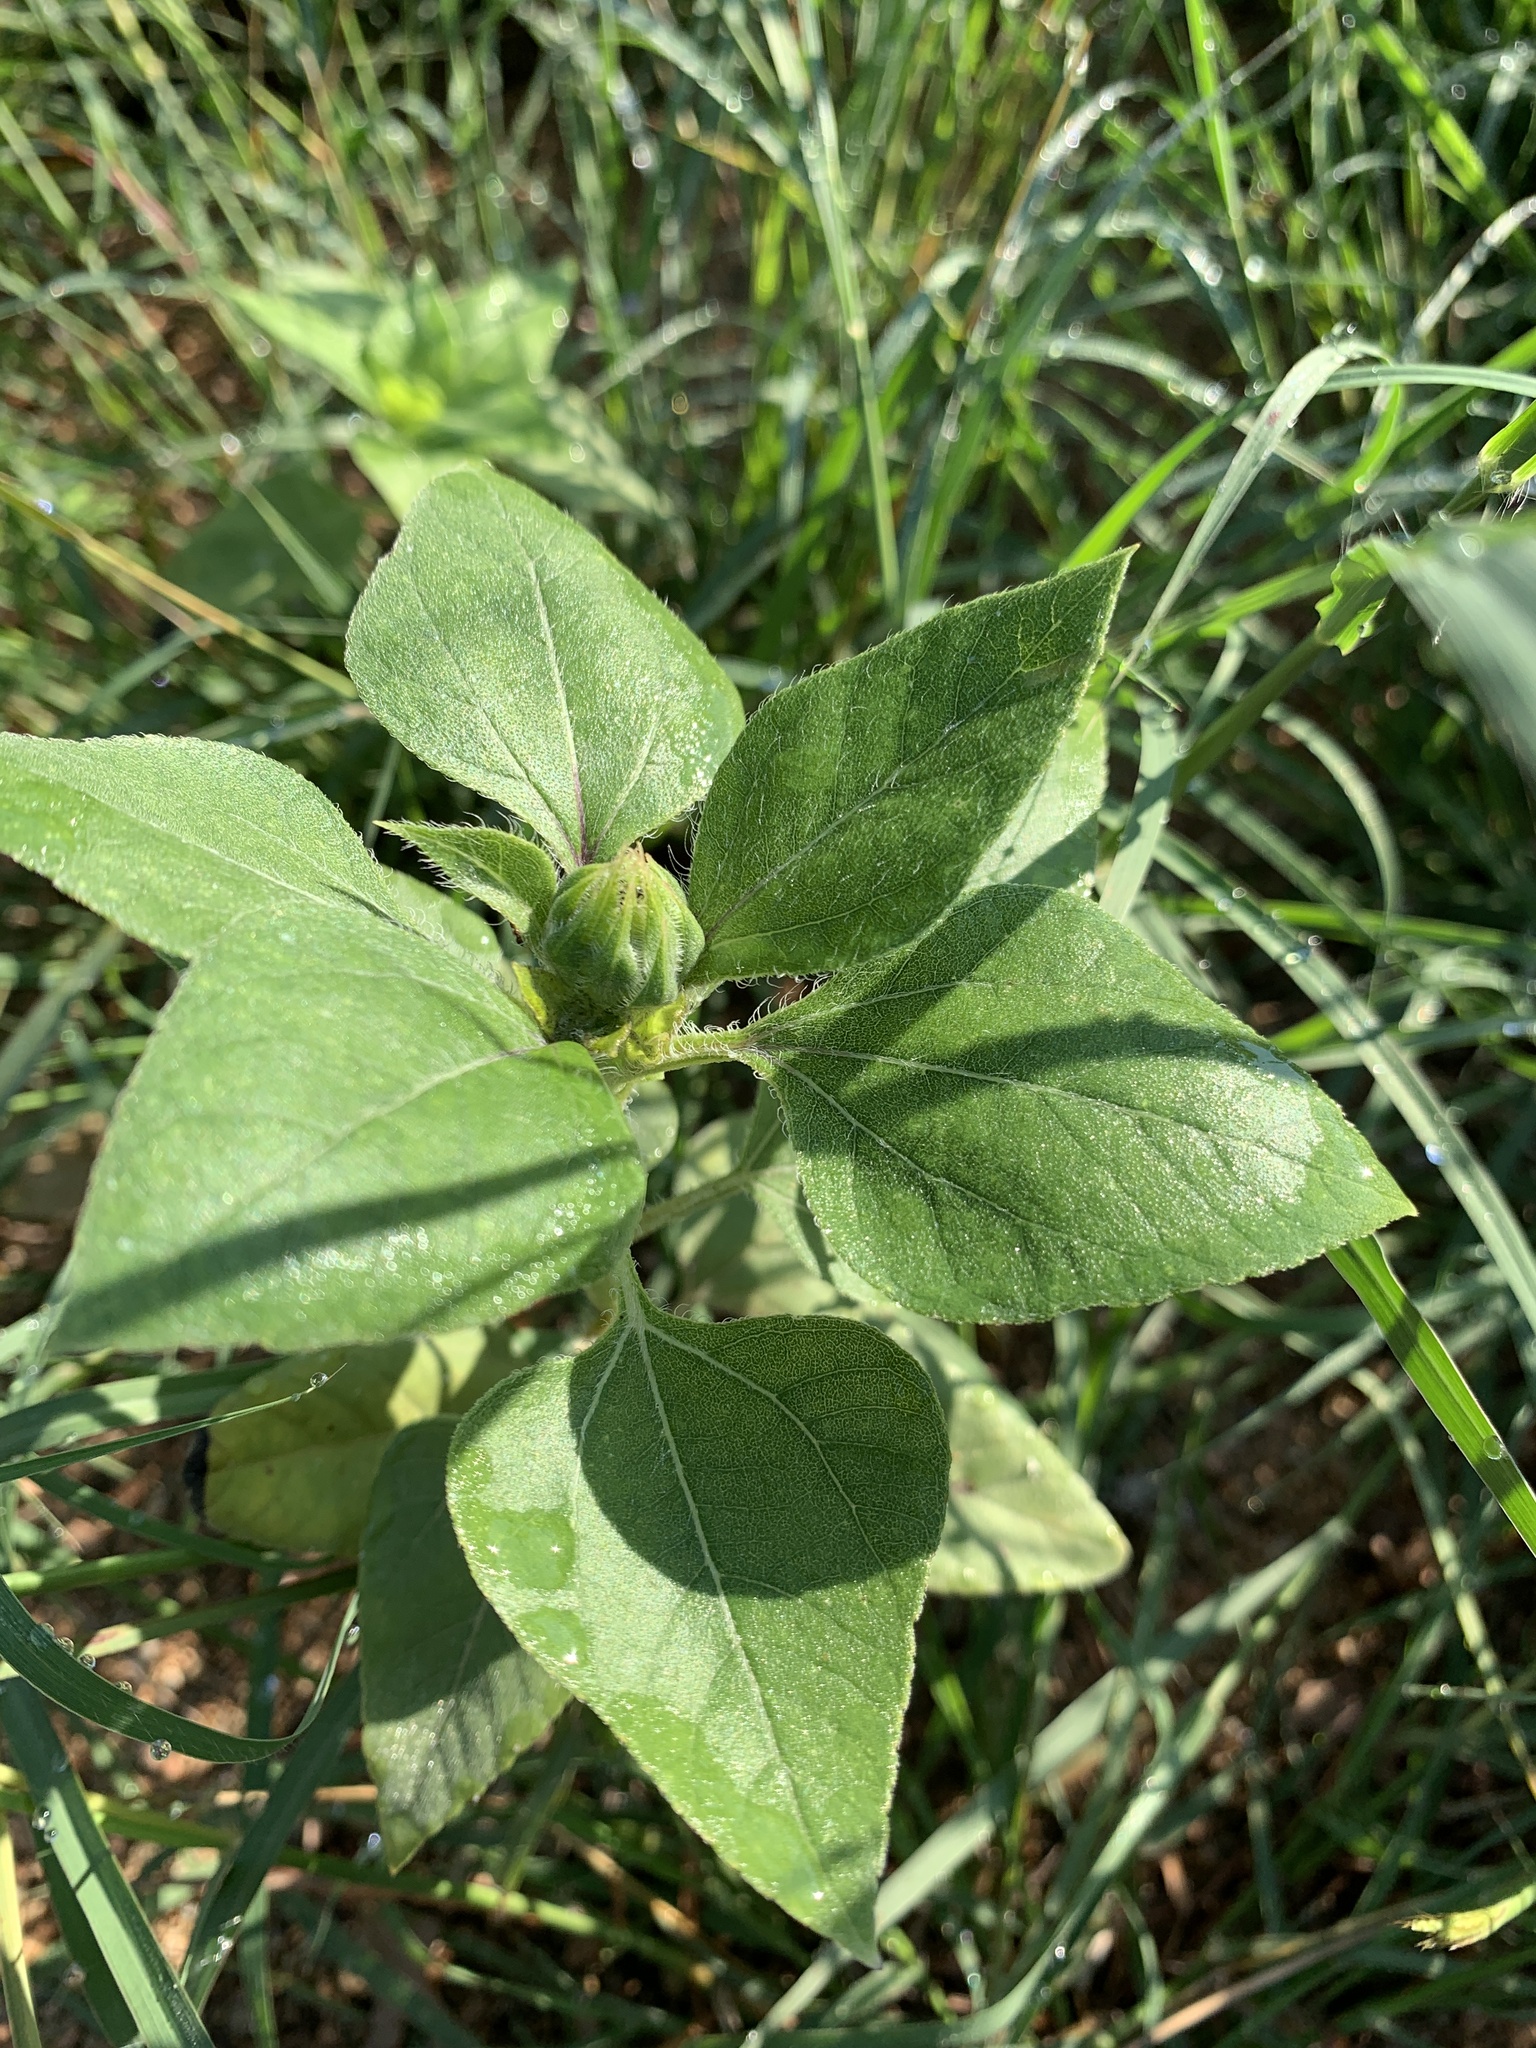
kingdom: Plantae
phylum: Tracheophyta
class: Magnoliopsida
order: Asterales
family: Asteraceae
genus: Helianthus
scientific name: Helianthus annuus
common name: Sunflower
